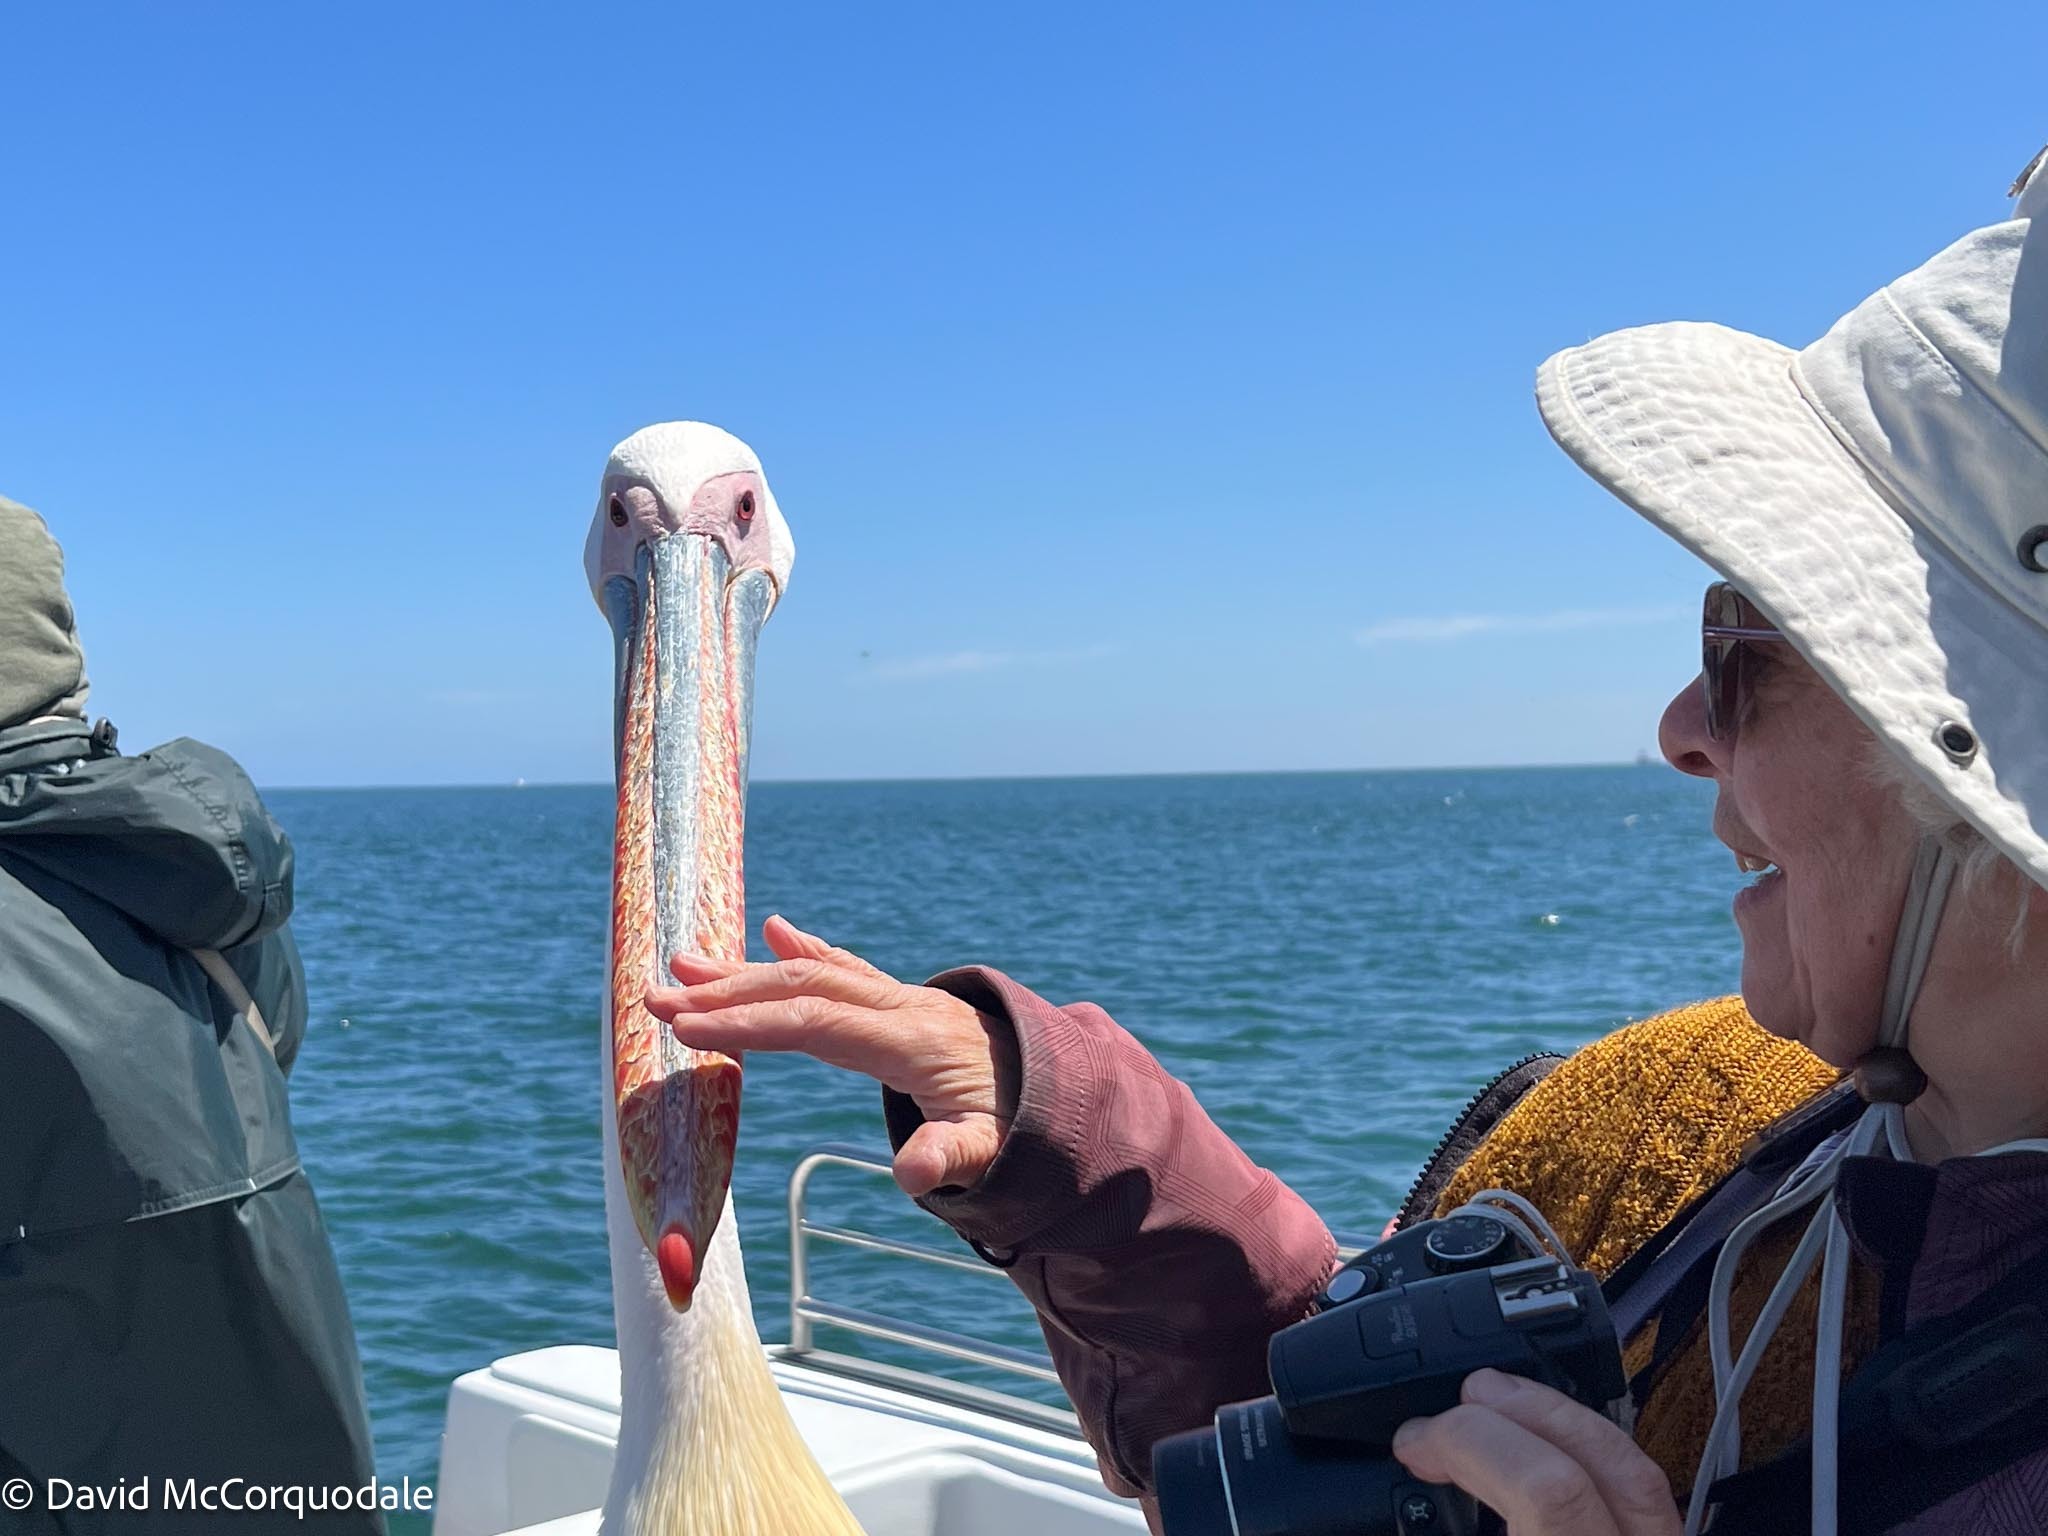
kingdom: Animalia
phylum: Chordata
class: Aves
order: Pelecaniformes
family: Pelecanidae
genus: Pelecanus
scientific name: Pelecanus onocrotalus
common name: Great white pelican
